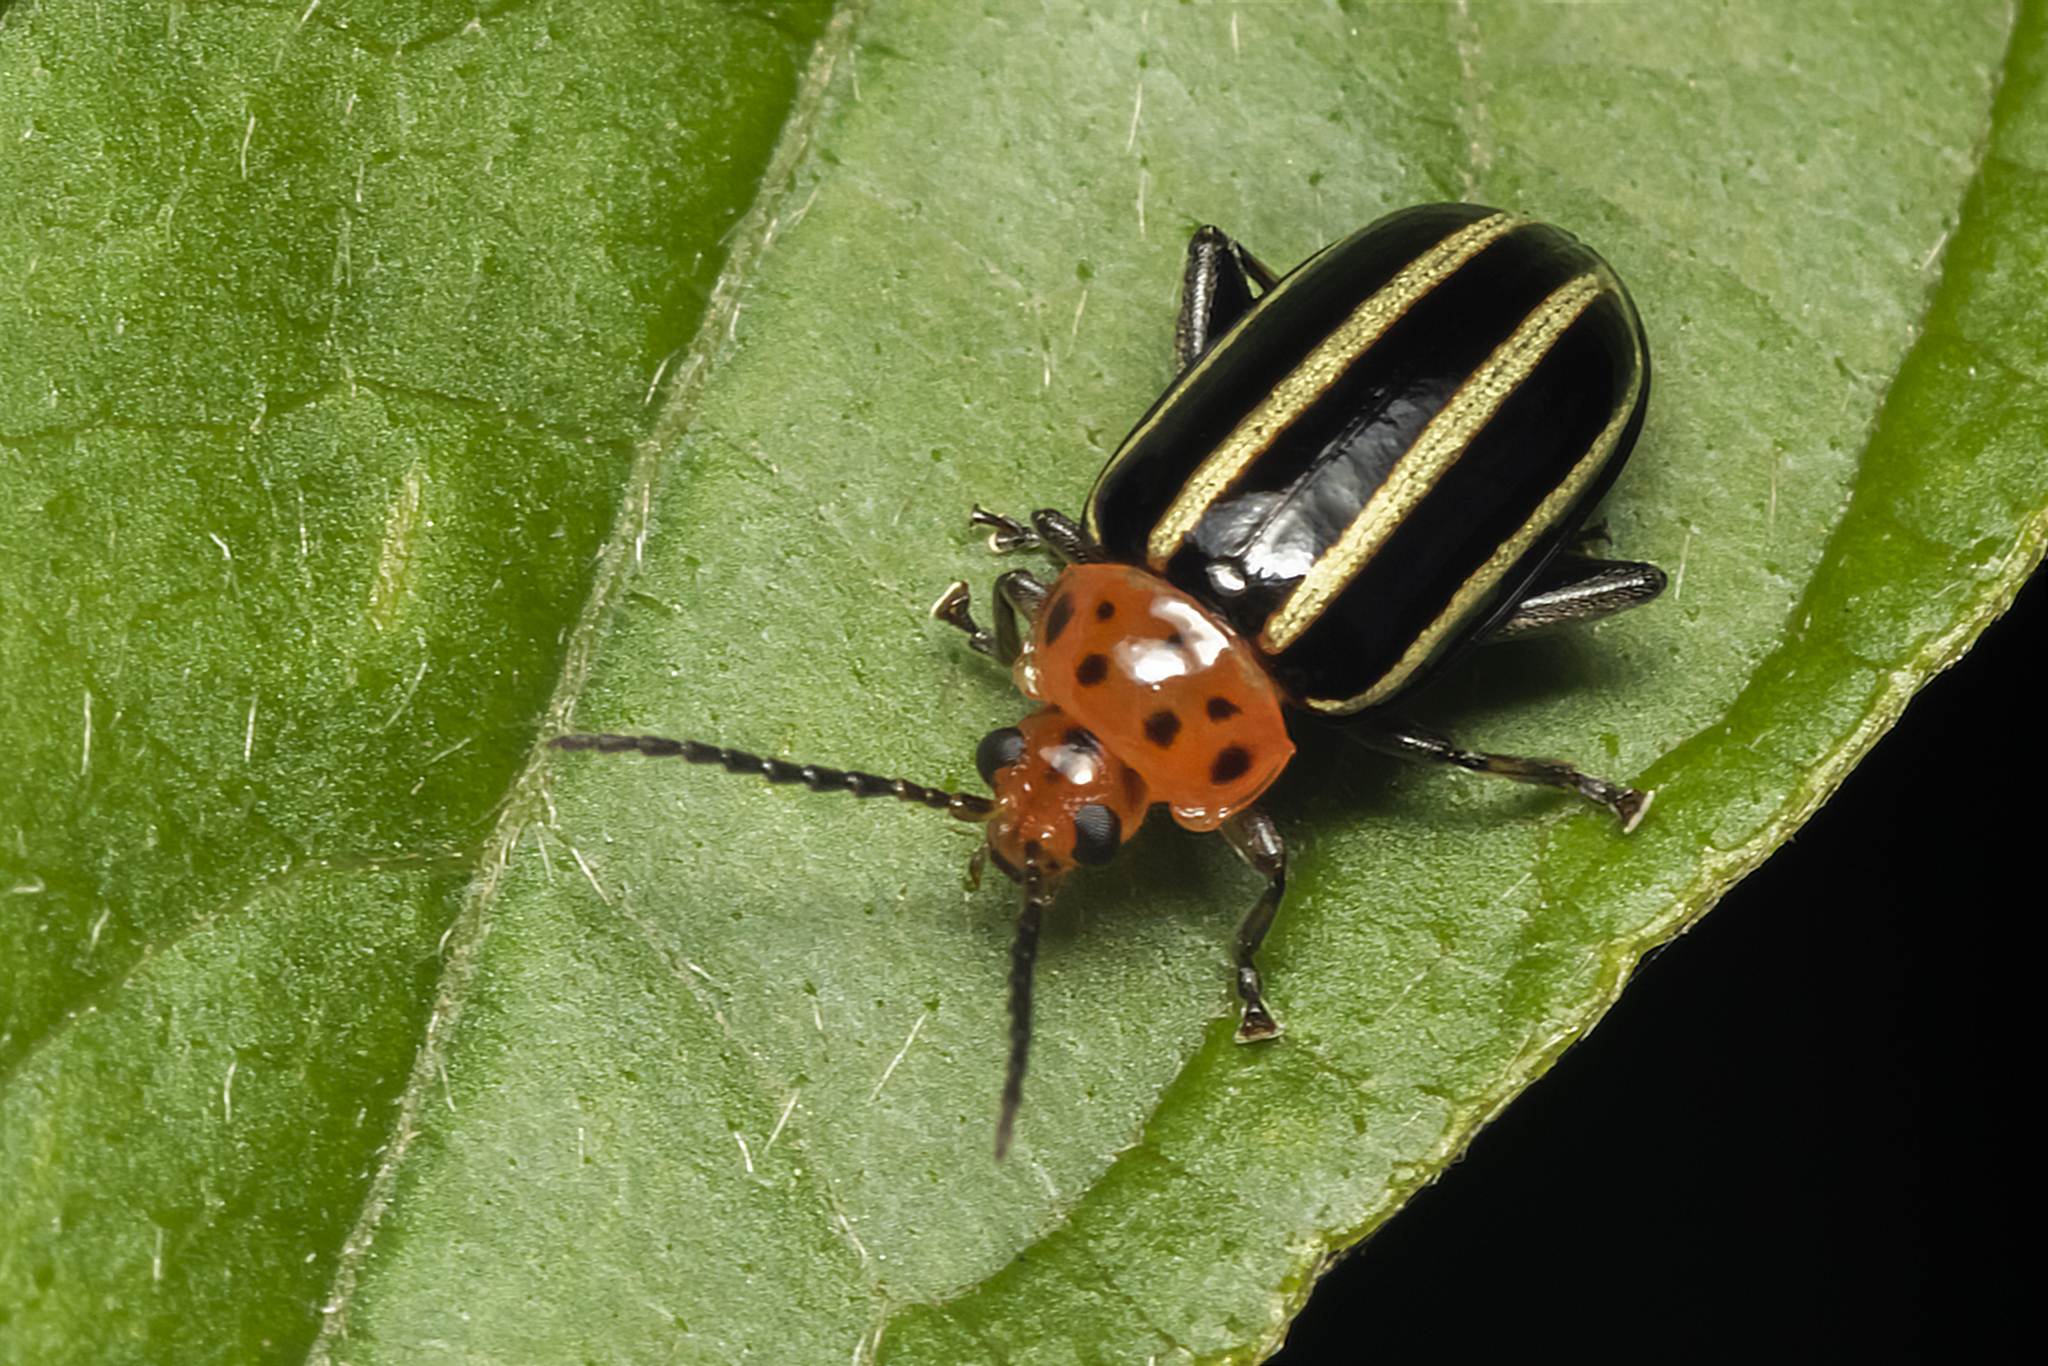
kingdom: Animalia
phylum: Arthropoda
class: Insecta
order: Coleoptera
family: Chrysomelidae
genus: Disonycha
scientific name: Disonycha
